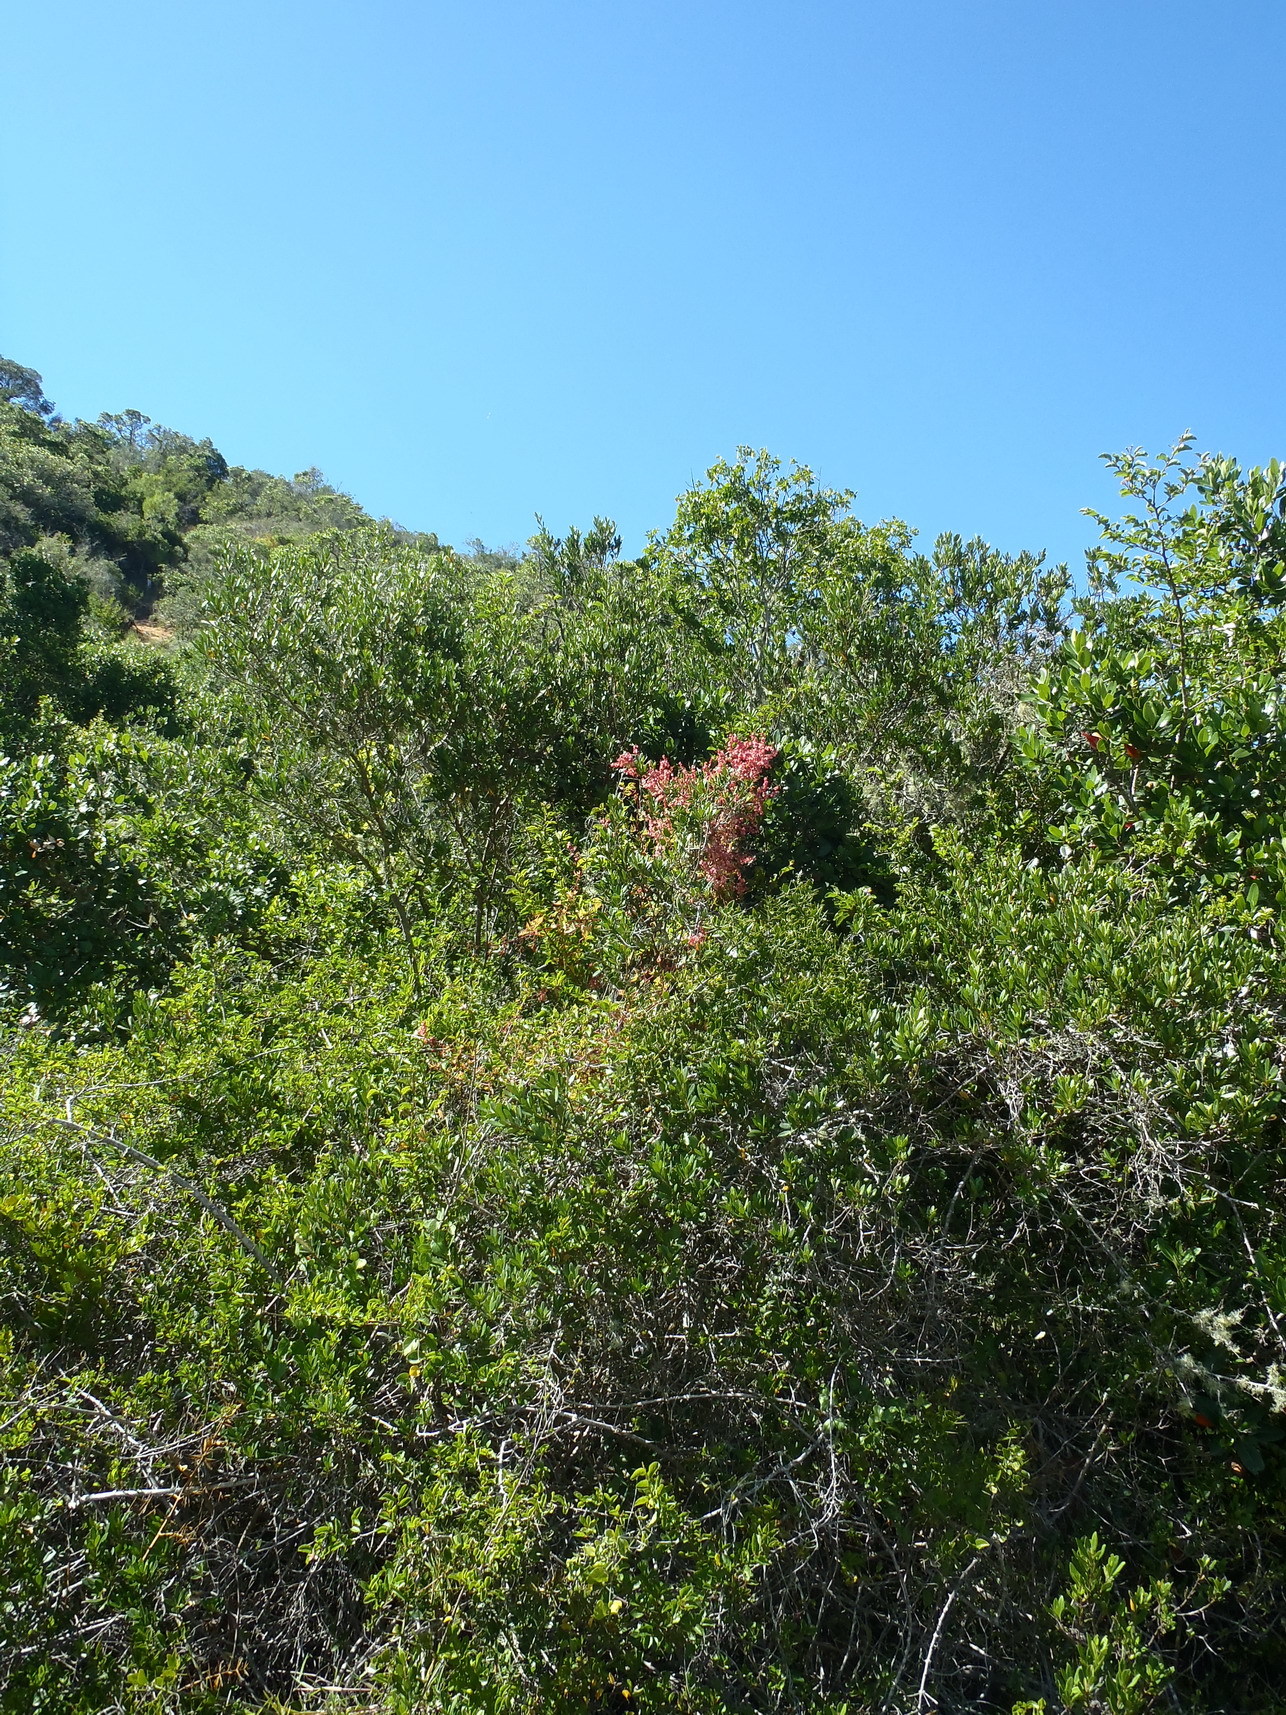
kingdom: Plantae
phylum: Tracheophyta
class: Magnoliopsida
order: Caryophyllales
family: Polygonaceae
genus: Rumex
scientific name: Rumex sagittatus
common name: Climbing dock
